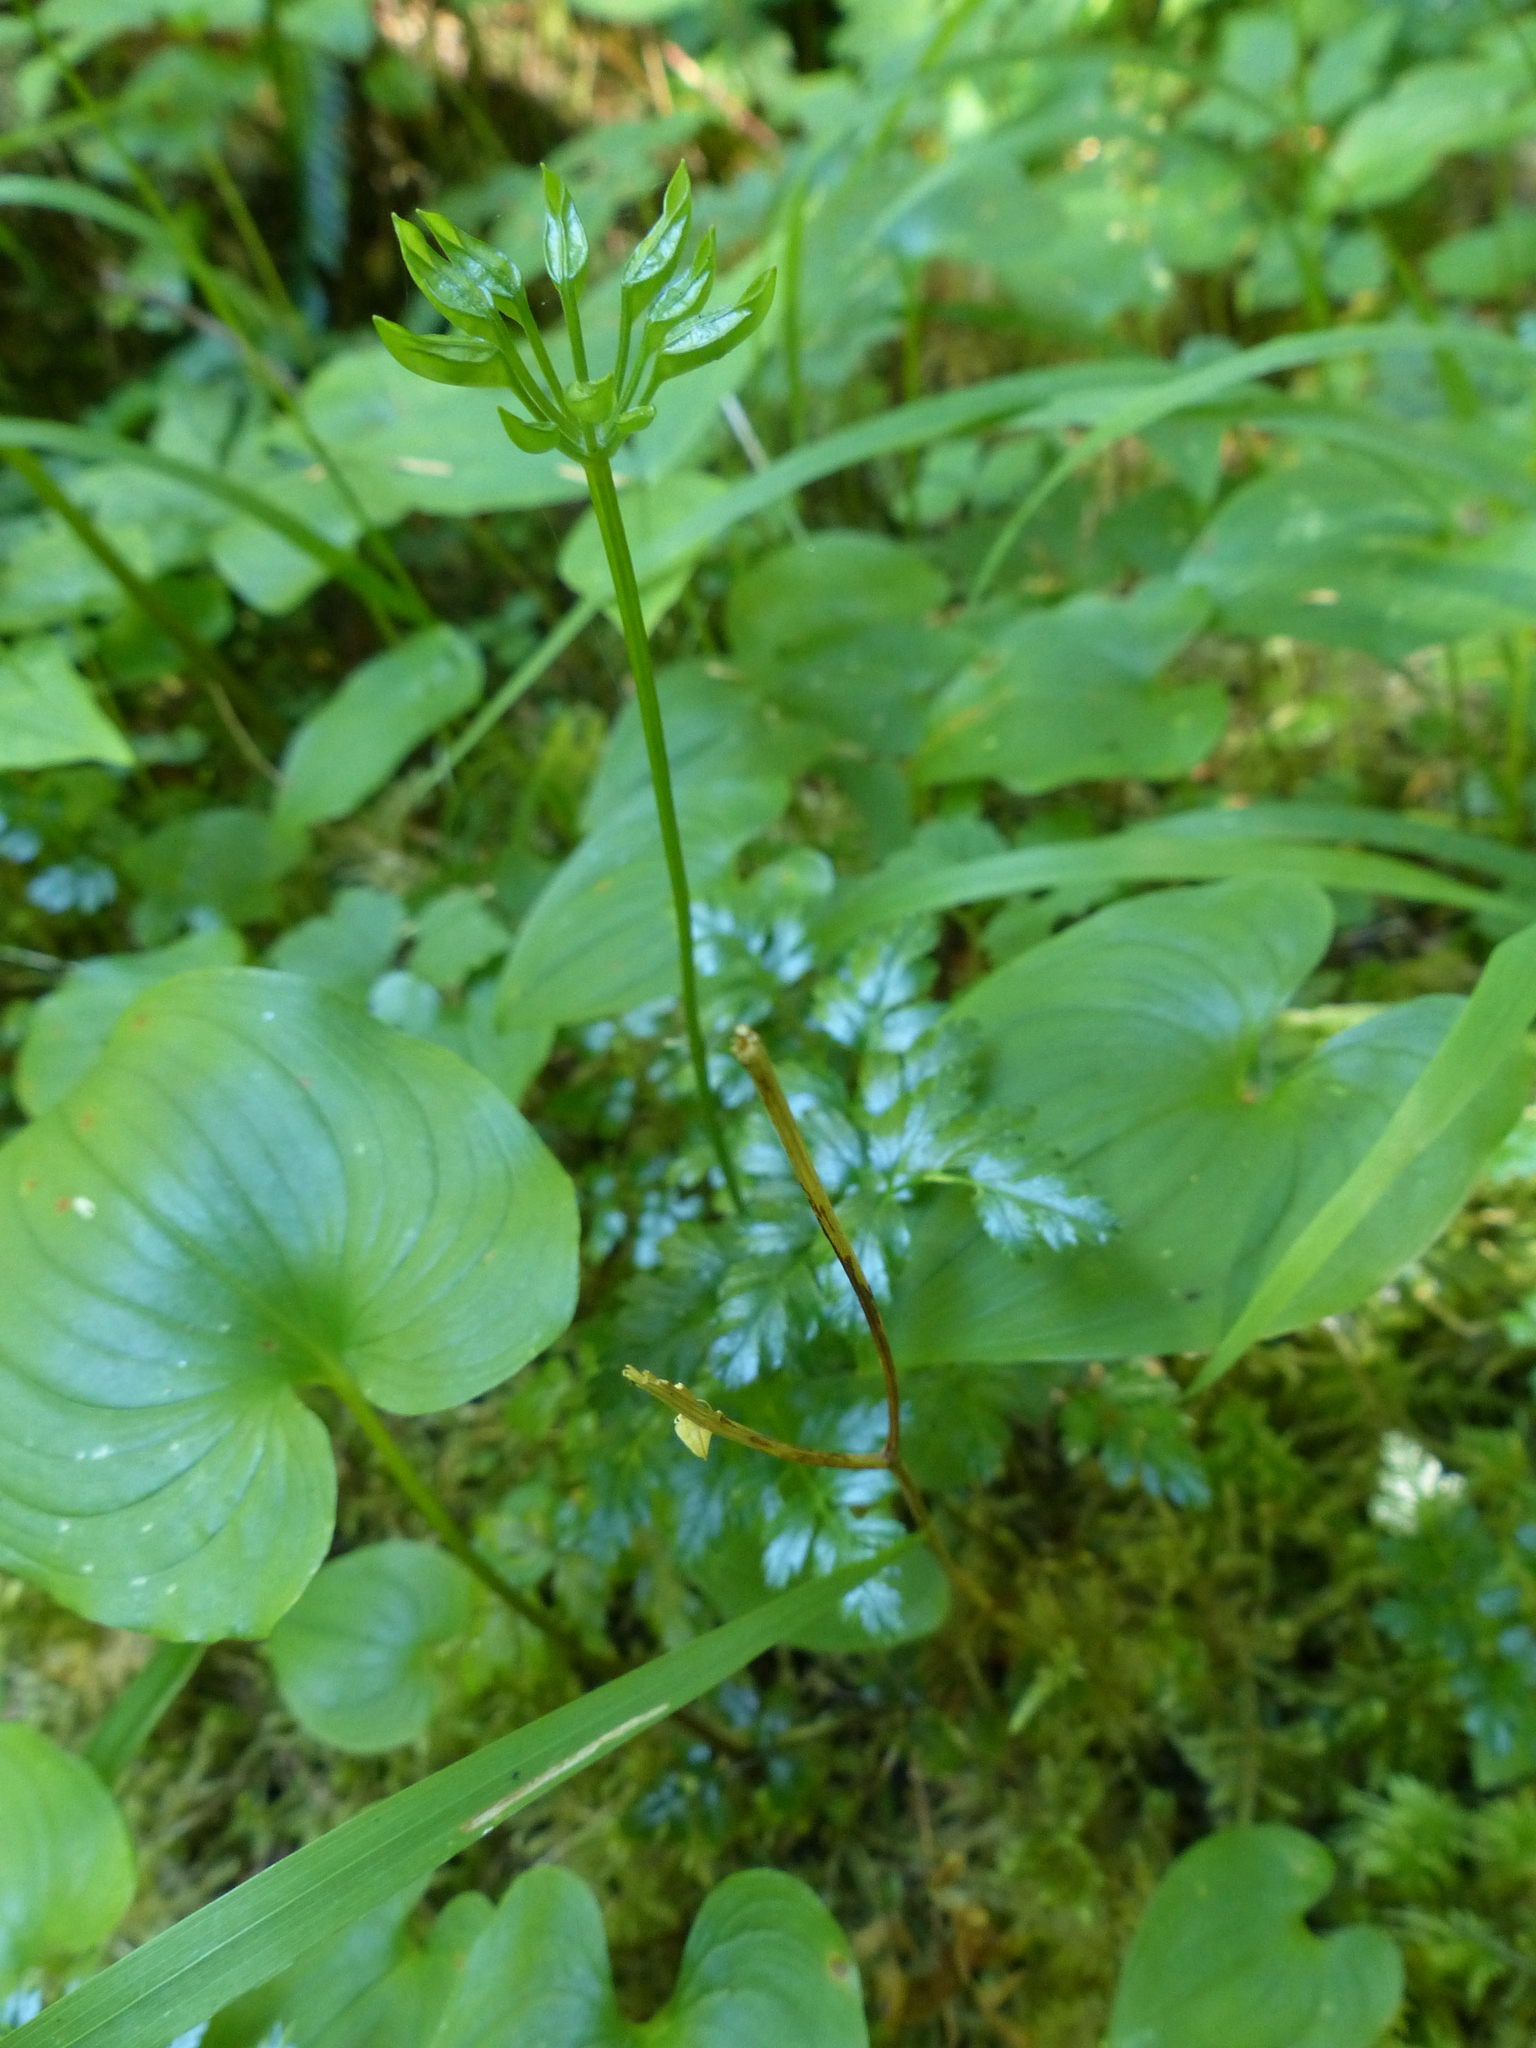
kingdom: Plantae
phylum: Tracheophyta
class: Magnoliopsida
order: Ranunculales
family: Ranunculaceae
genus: Coptis
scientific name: Coptis aspleniifolia
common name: Fern-leaved goldthread
